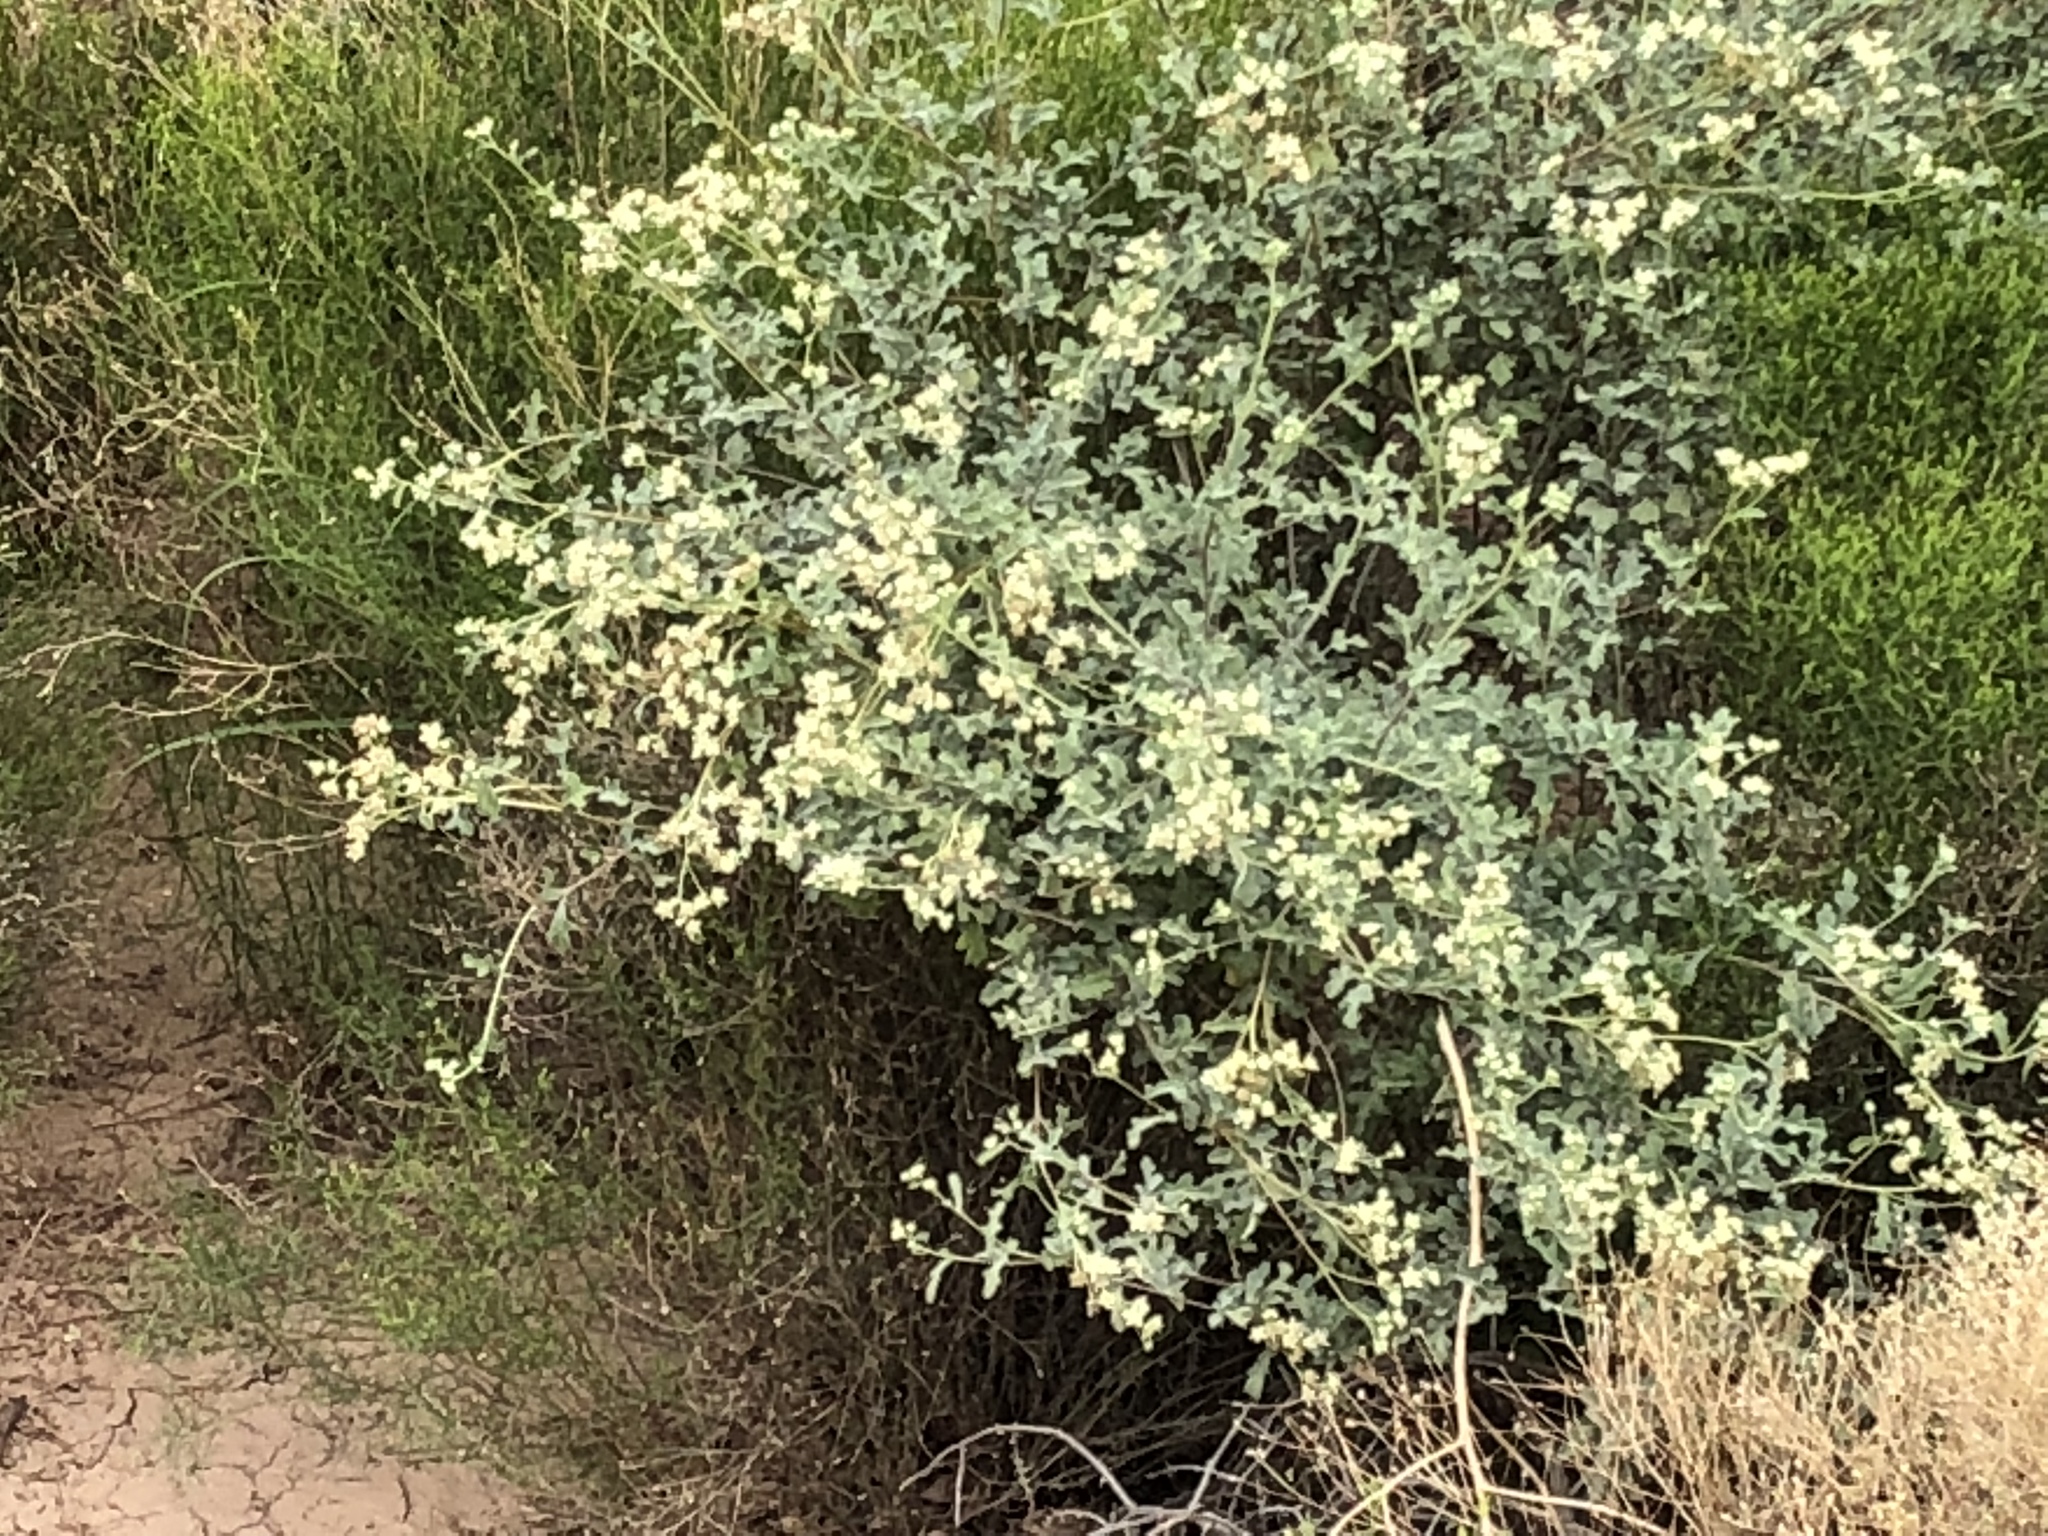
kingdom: Plantae
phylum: Tracheophyta
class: Magnoliopsida
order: Asterales
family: Asteraceae
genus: Parthenium
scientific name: Parthenium incanum
